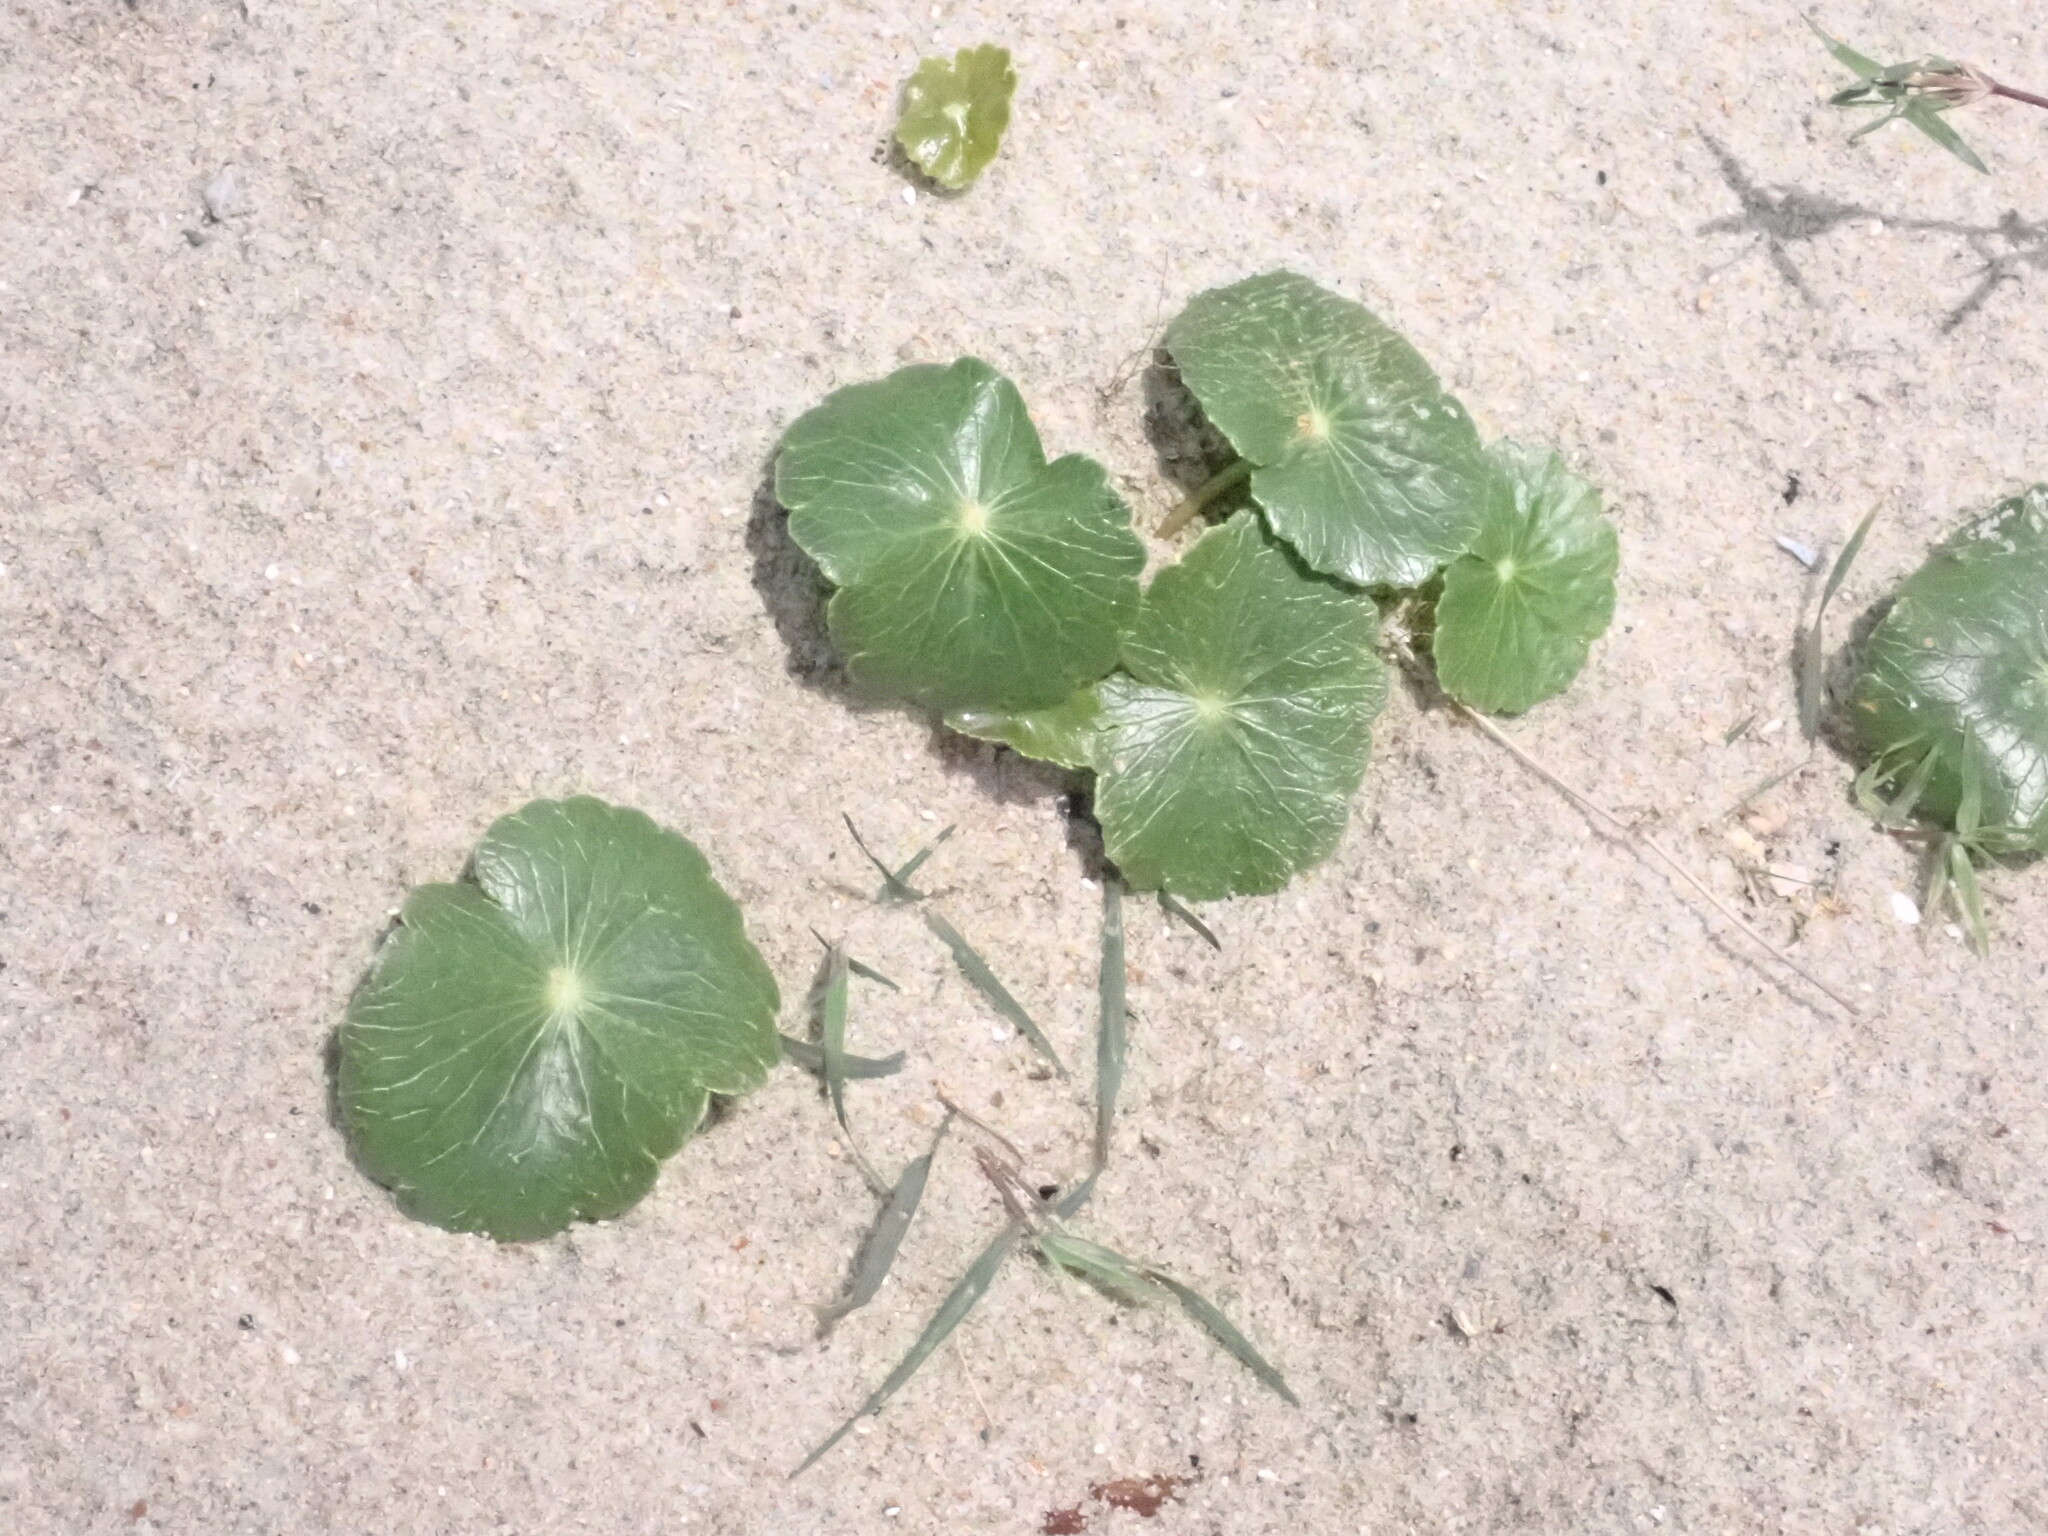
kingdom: Plantae
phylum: Tracheophyta
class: Magnoliopsida
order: Apiales
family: Araliaceae
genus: Hydrocotyle
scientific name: Hydrocotyle bonariensis
